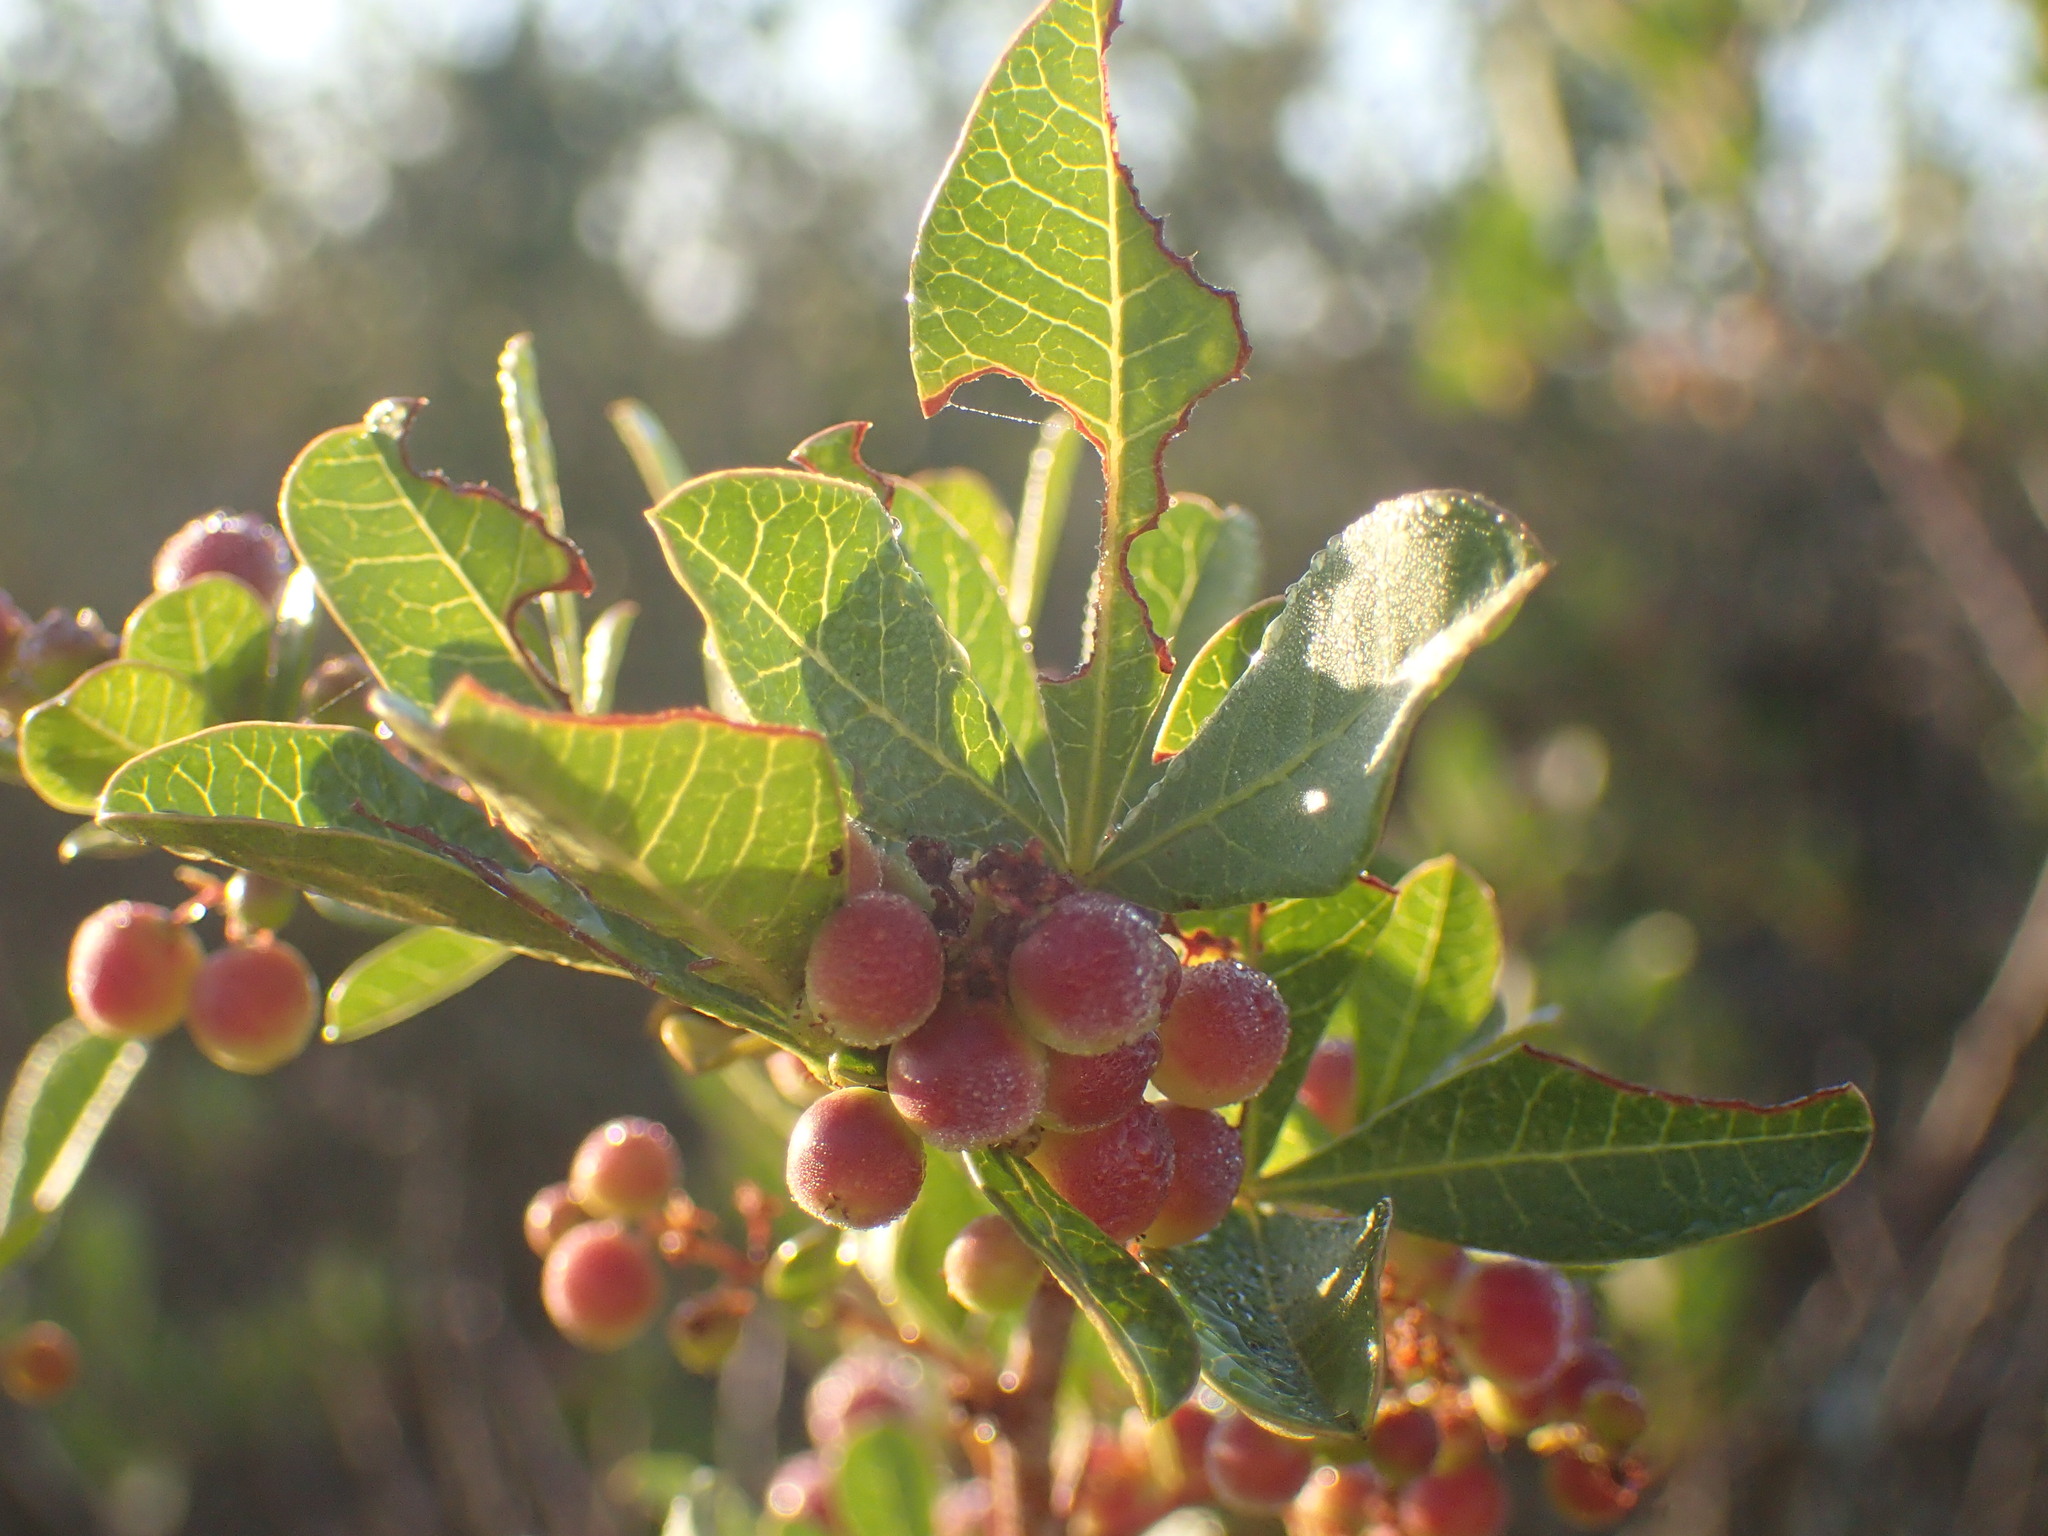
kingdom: Plantae
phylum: Tracheophyta
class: Magnoliopsida
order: Sapindales
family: Anacardiaceae
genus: Searsia
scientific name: Searsia laevigata
